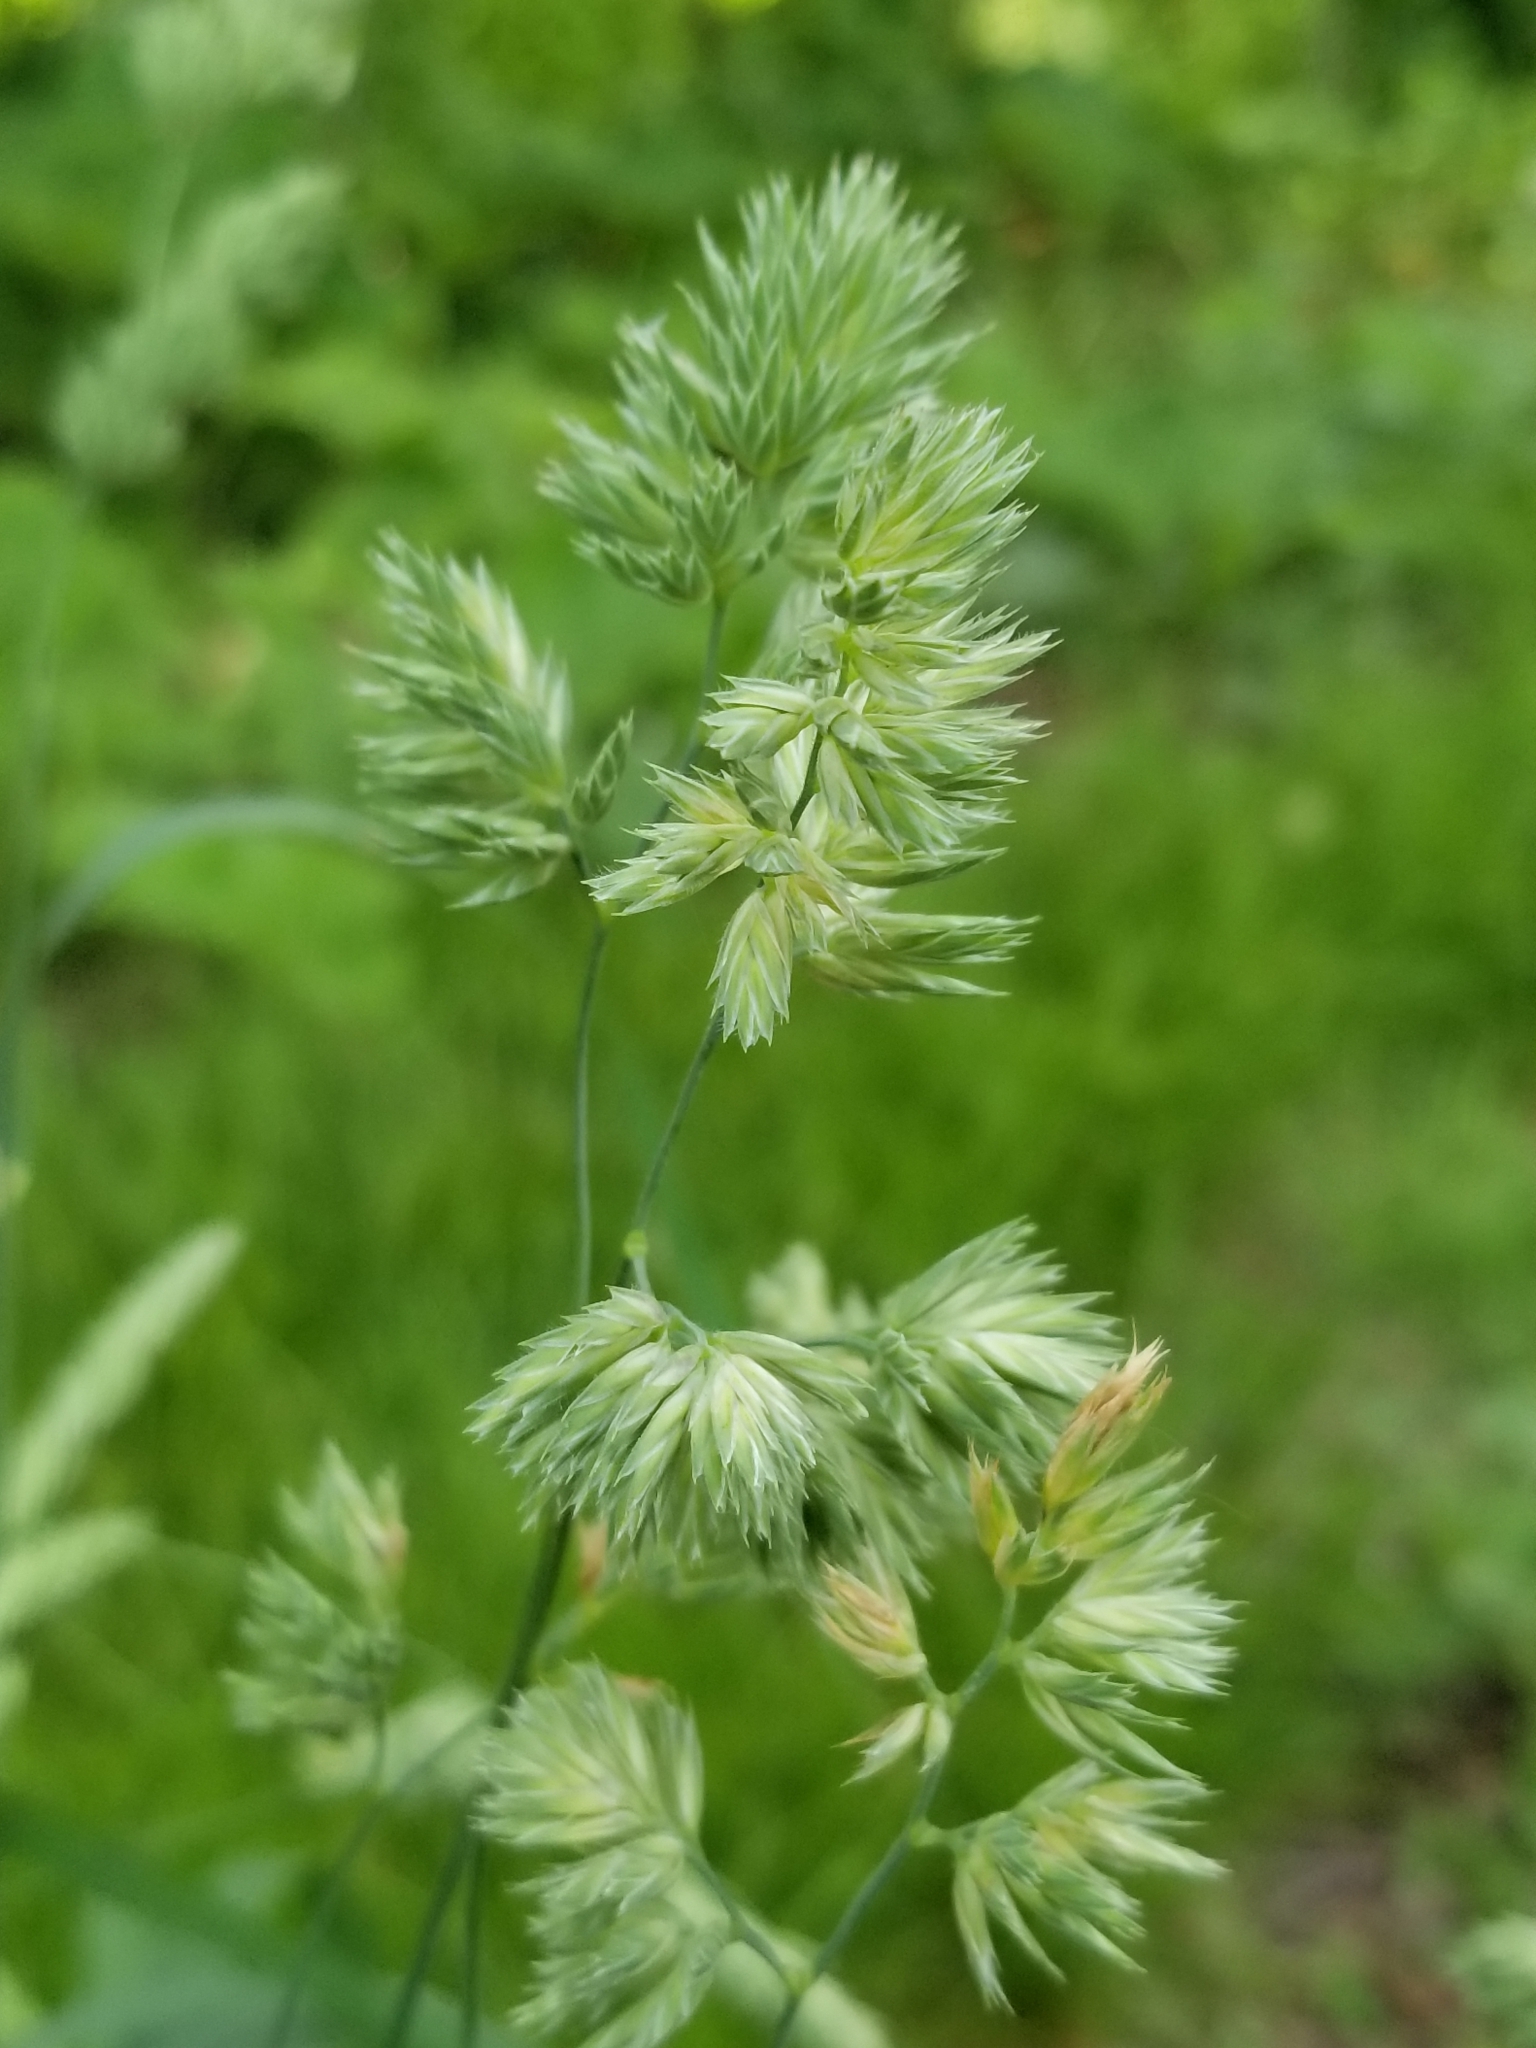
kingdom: Plantae
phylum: Tracheophyta
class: Liliopsida
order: Poales
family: Poaceae
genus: Dactylis
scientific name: Dactylis glomerata
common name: Orchardgrass
